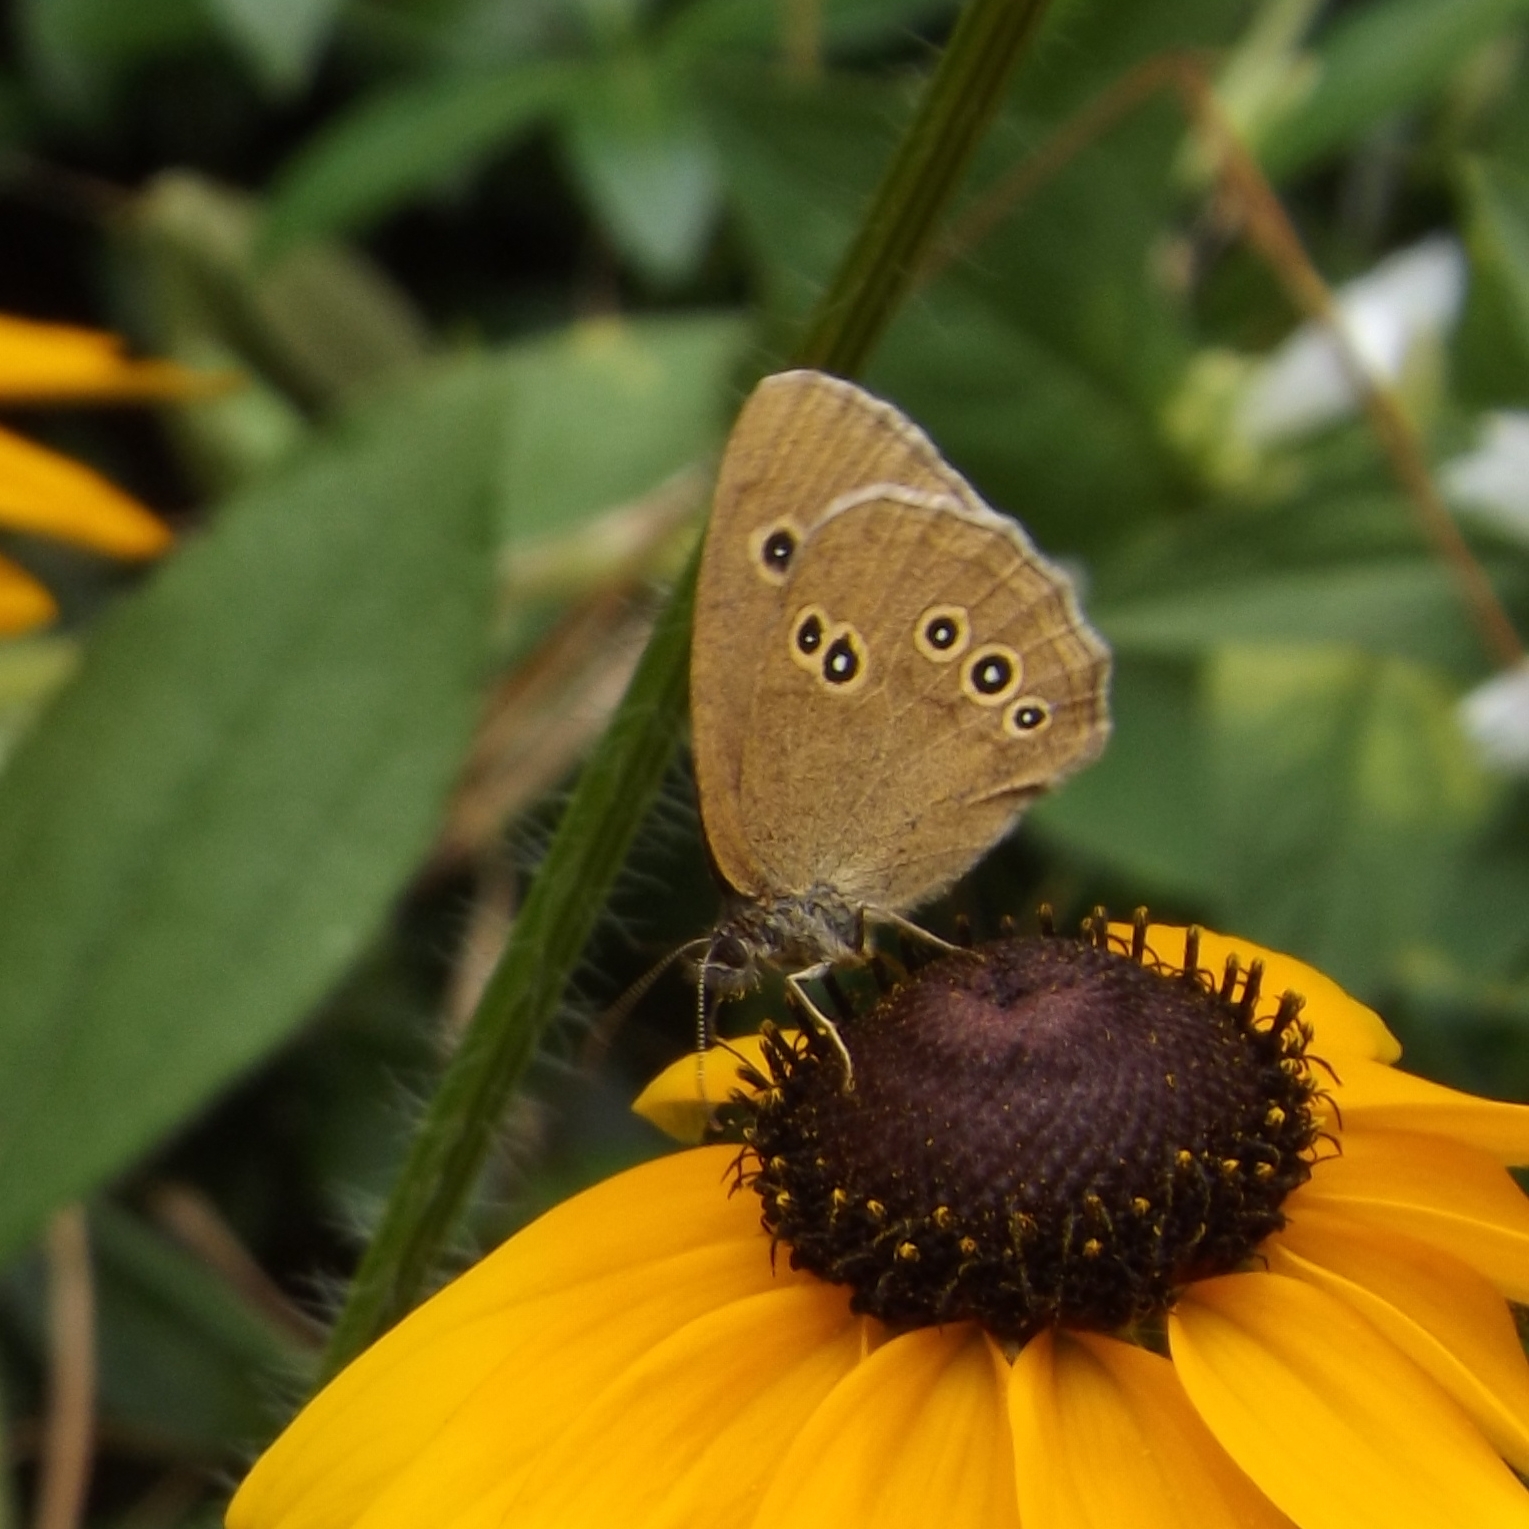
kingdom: Animalia
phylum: Arthropoda
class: Insecta
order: Lepidoptera
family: Nymphalidae
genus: Aphantopus
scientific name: Aphantopus hyperantus
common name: Ringlet
